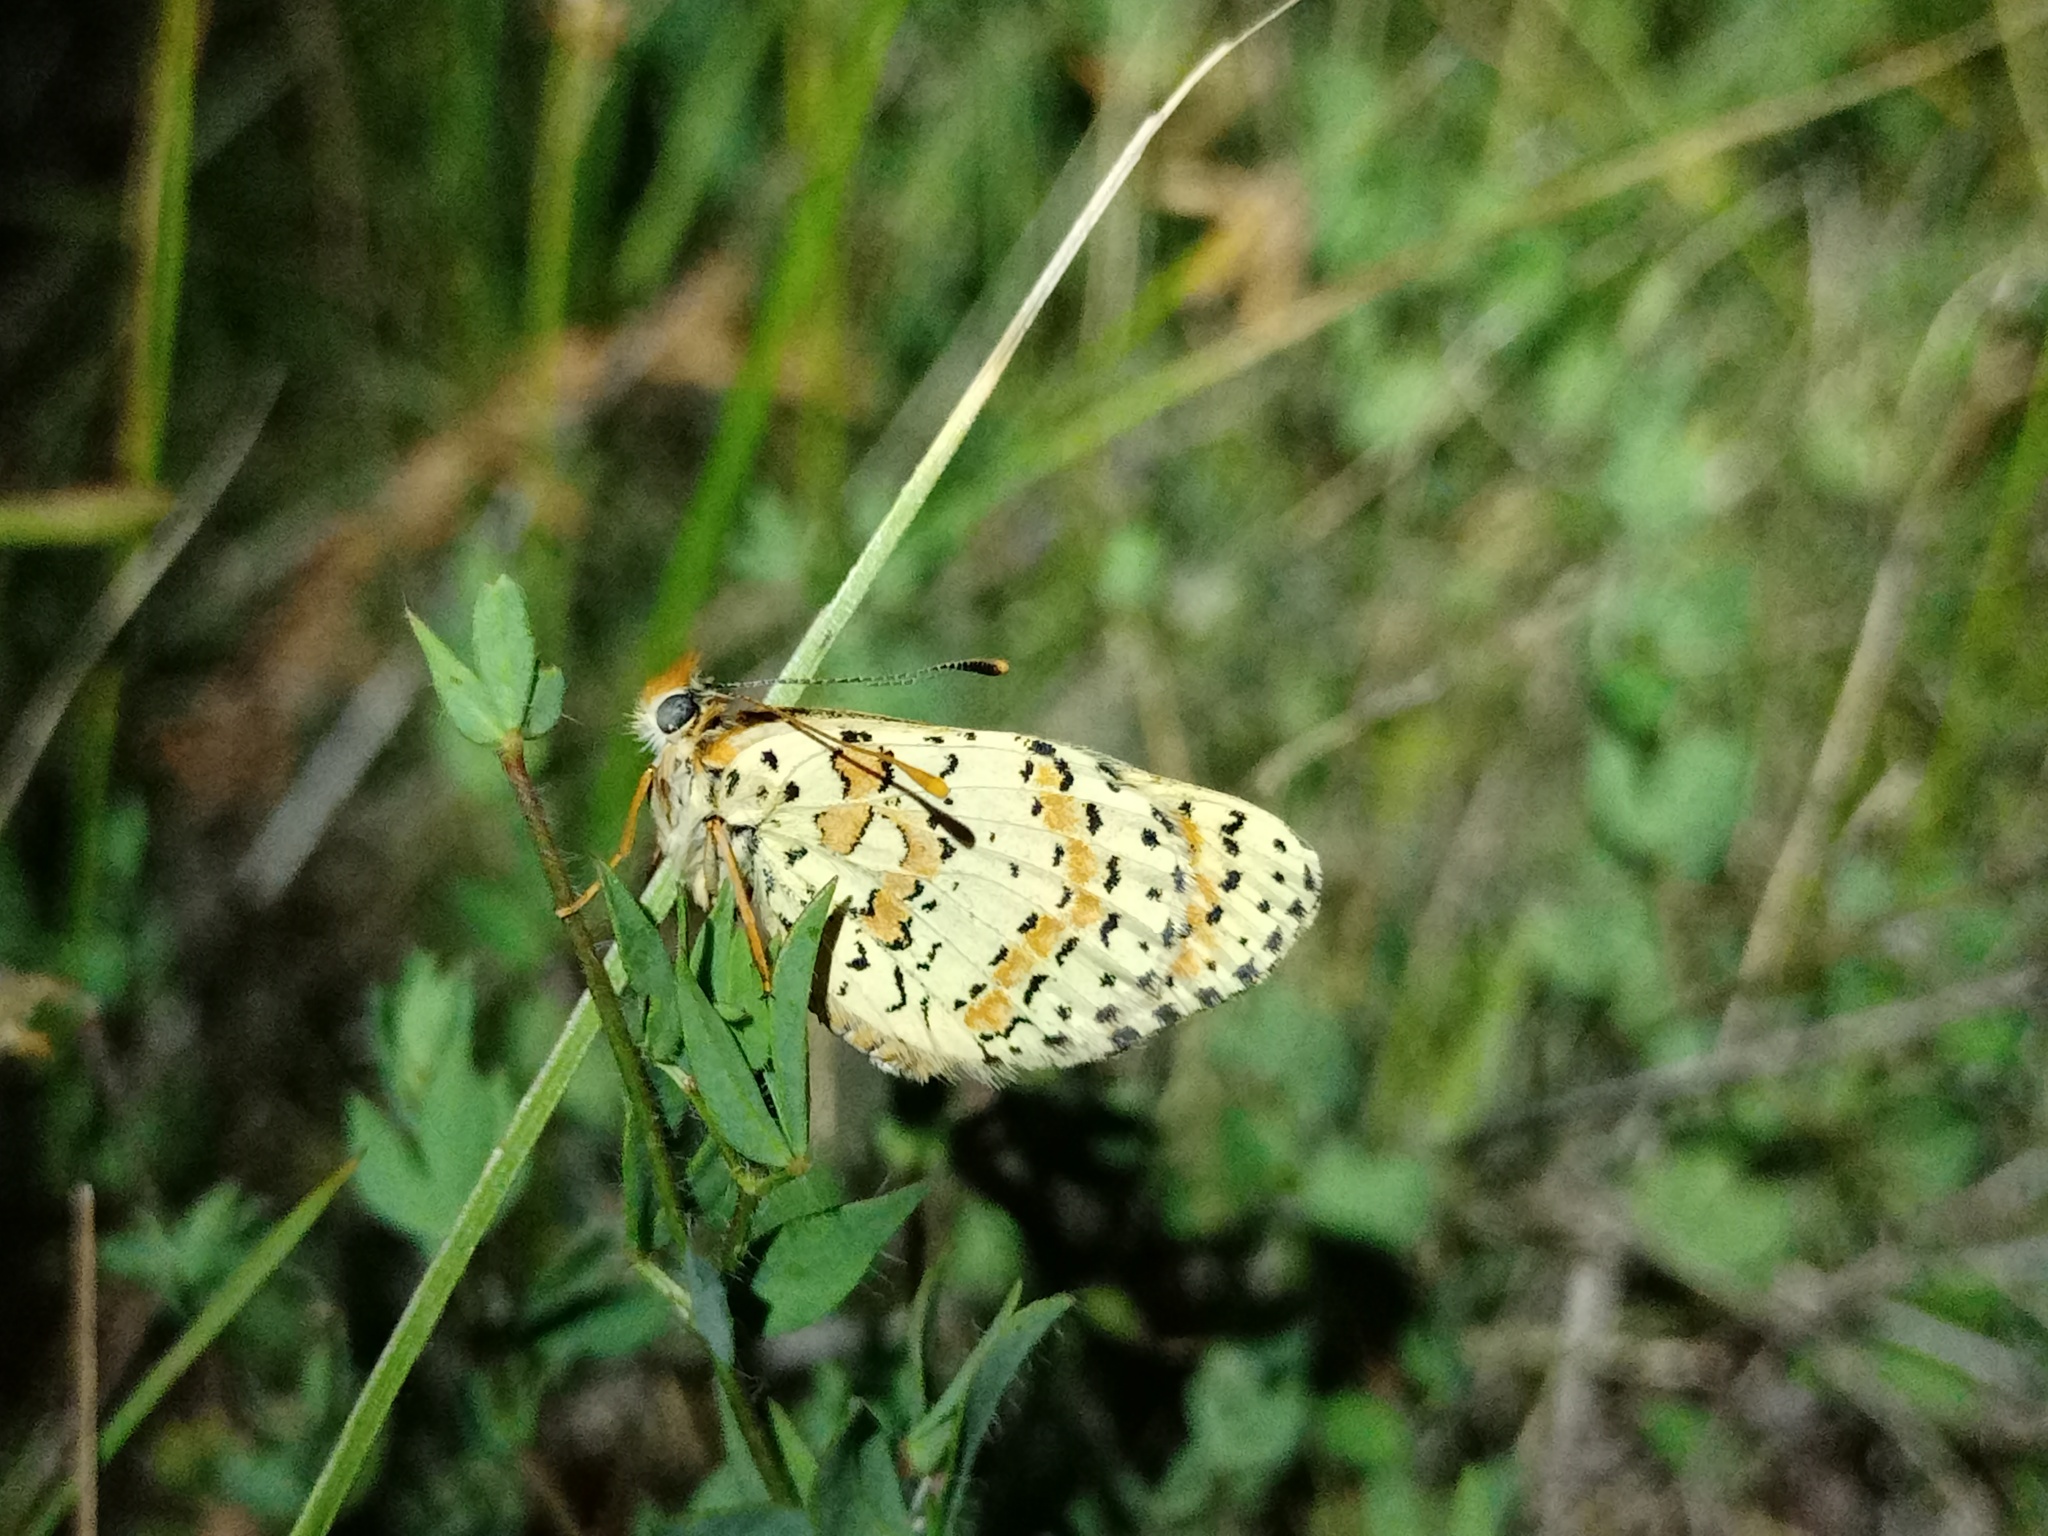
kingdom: Animalia
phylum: Arthropoda
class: Insecta
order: Lepidoptera
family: Nymphalidae
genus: Melitaea
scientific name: Melitaea didyma
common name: Spotted fritillary
